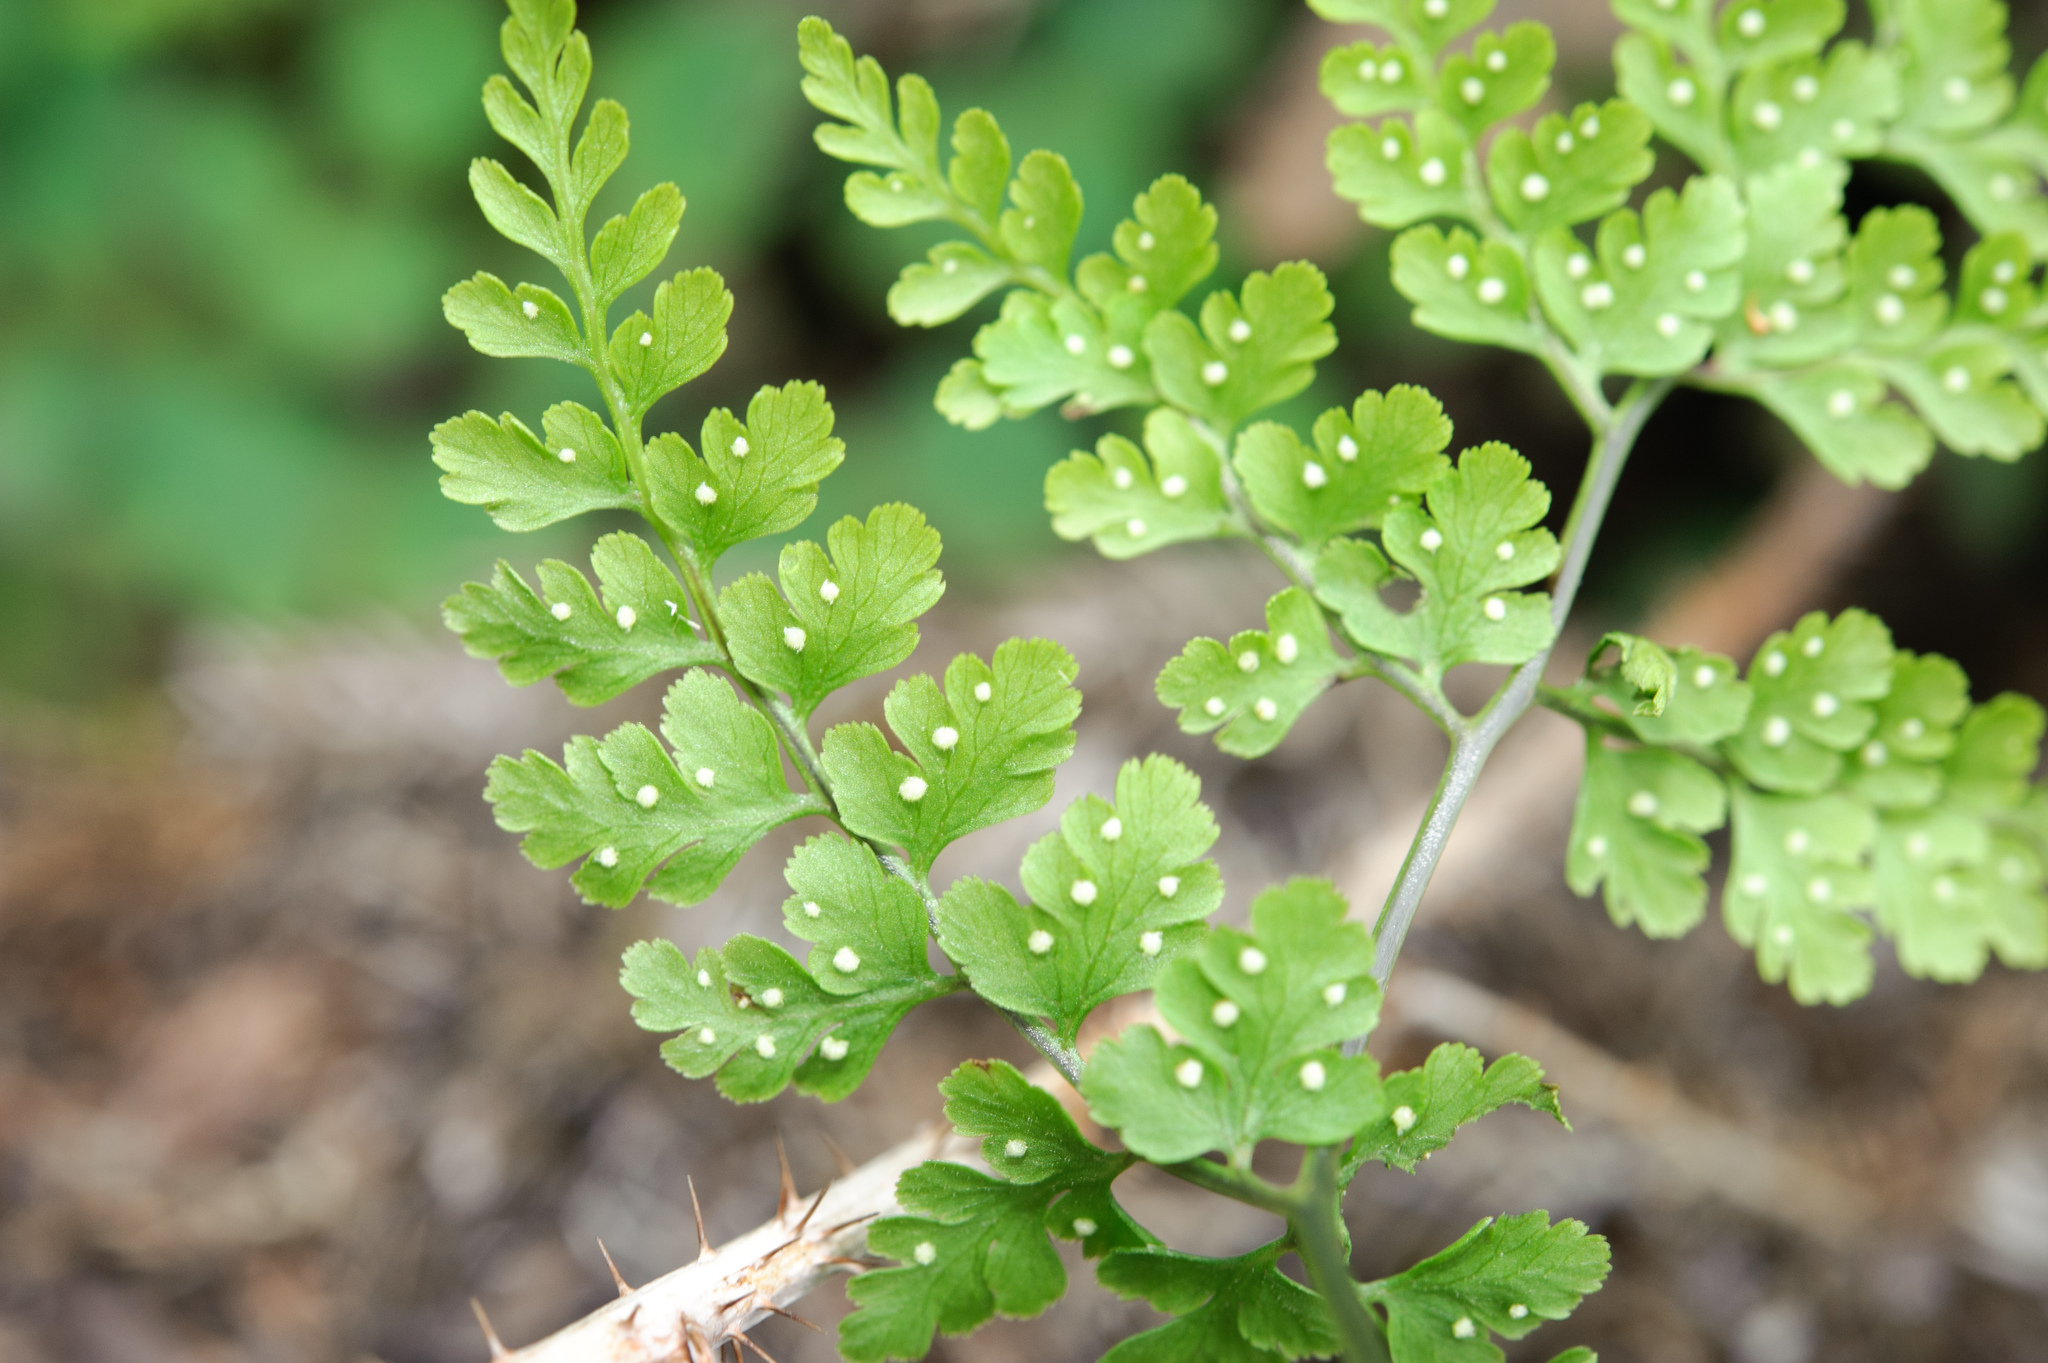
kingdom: Plantae
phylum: Tracheophyta
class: Polypodiopsida
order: Polypodiales
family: Cystopteridaceae
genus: Cystopteris
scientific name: Cystopteris moupinensis
